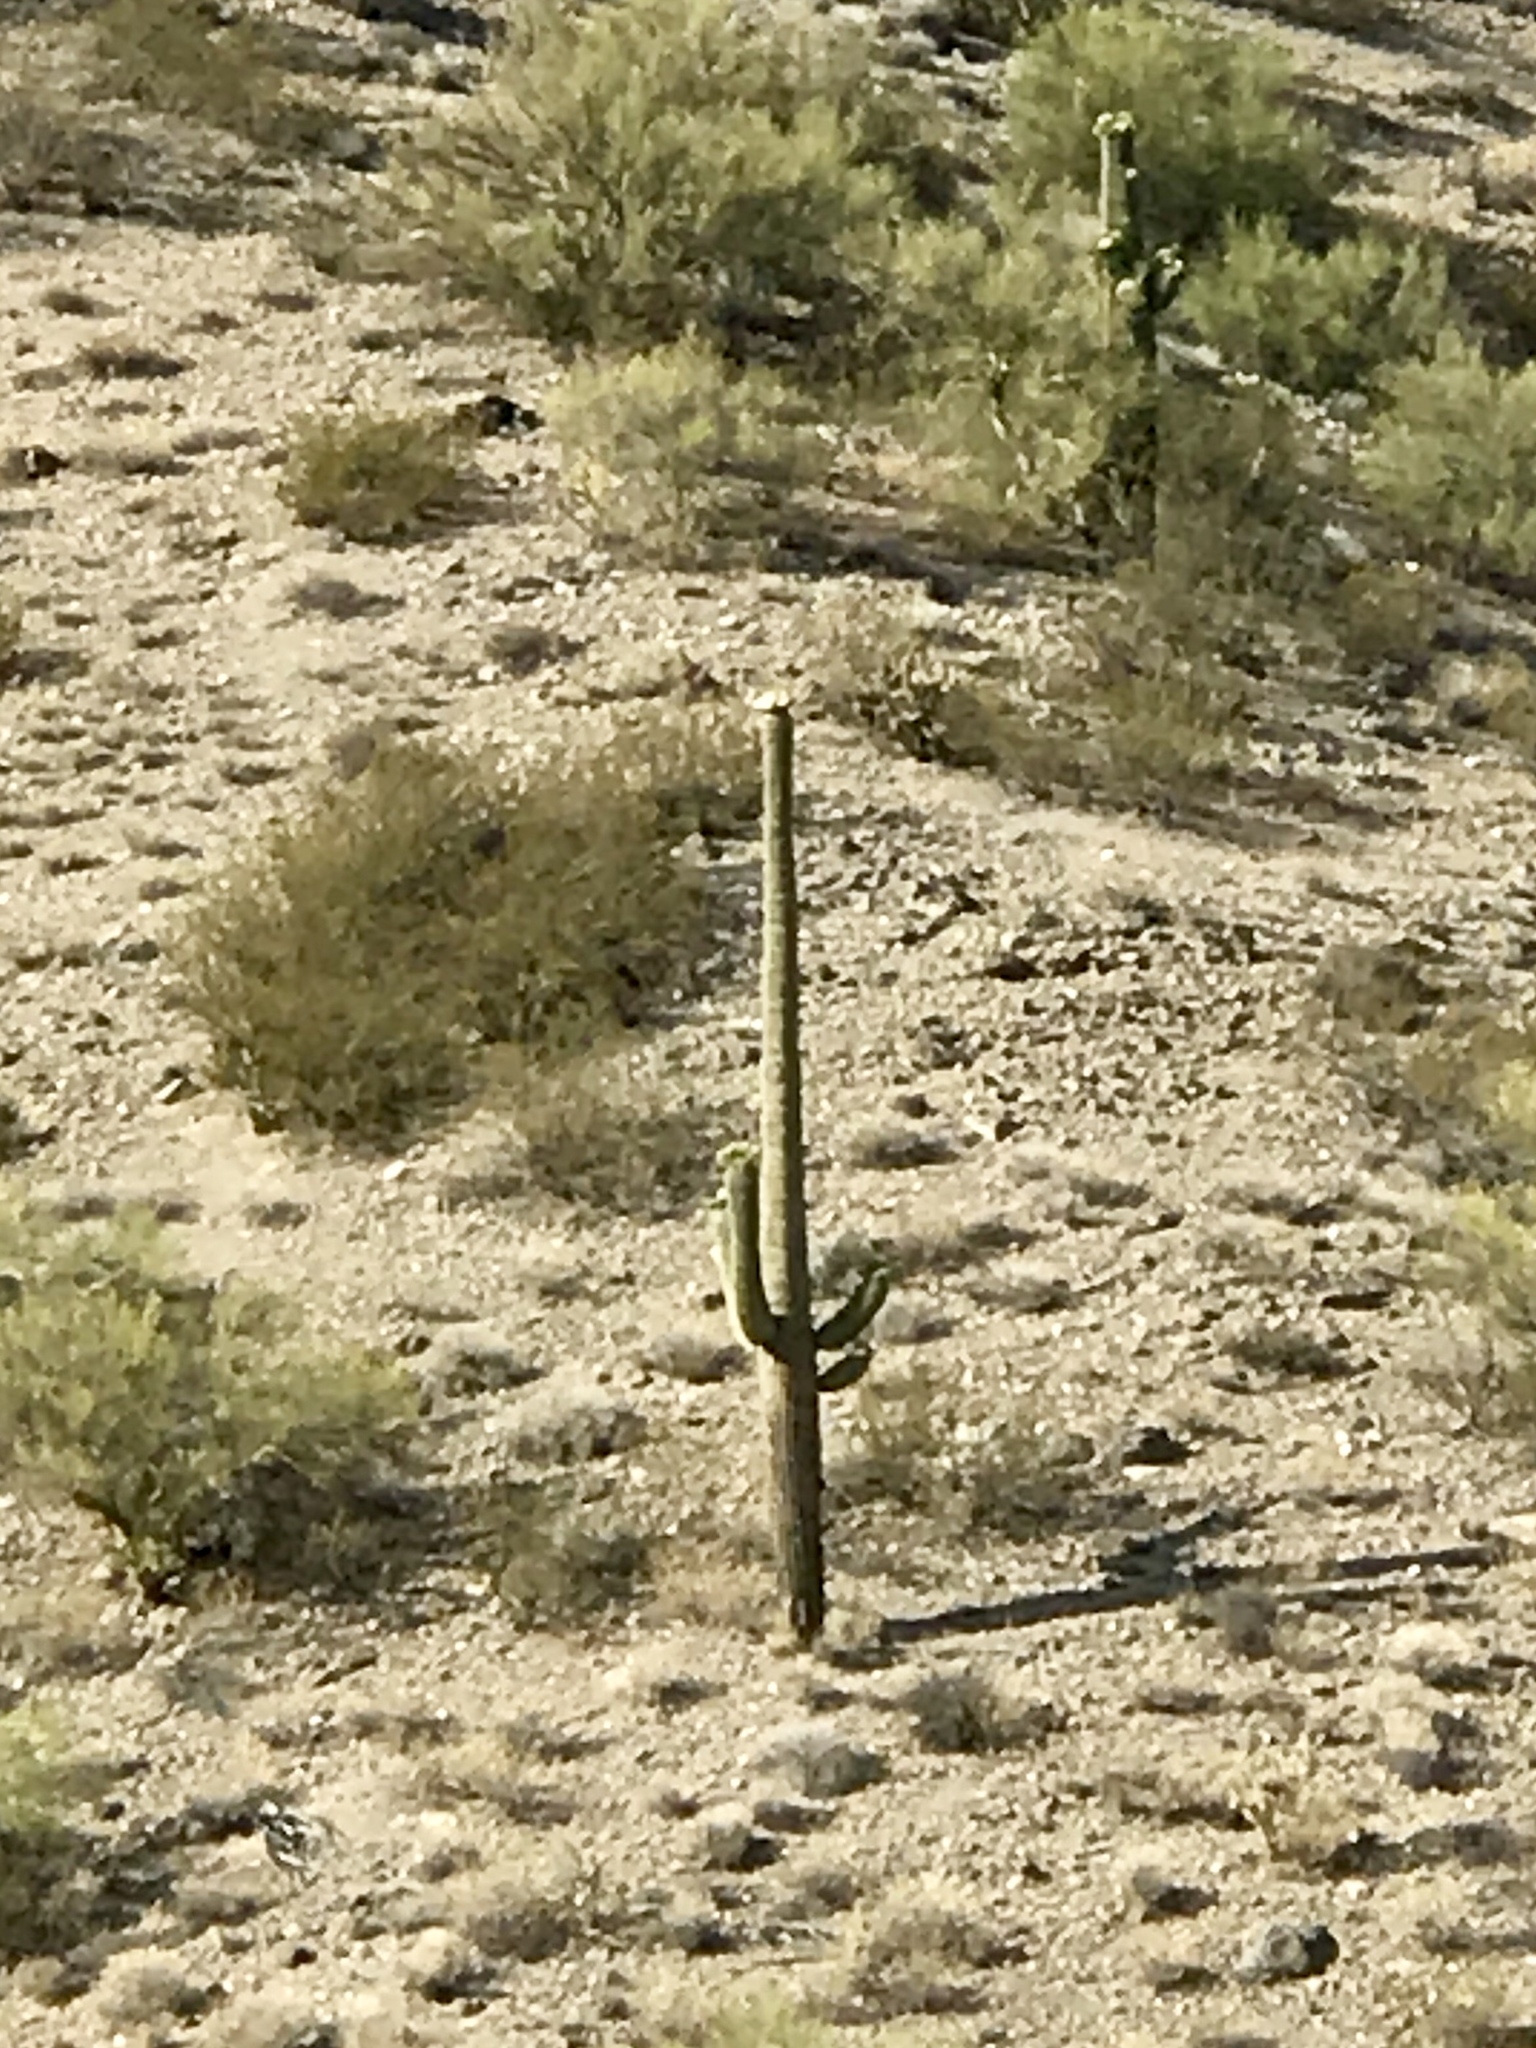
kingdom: Plantae
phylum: Tracheophyta
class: Magnoliopsida
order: Caryophyllales
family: Cactaceae
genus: Carnegiea
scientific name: Carnegiea gigantea
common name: Saguaro
